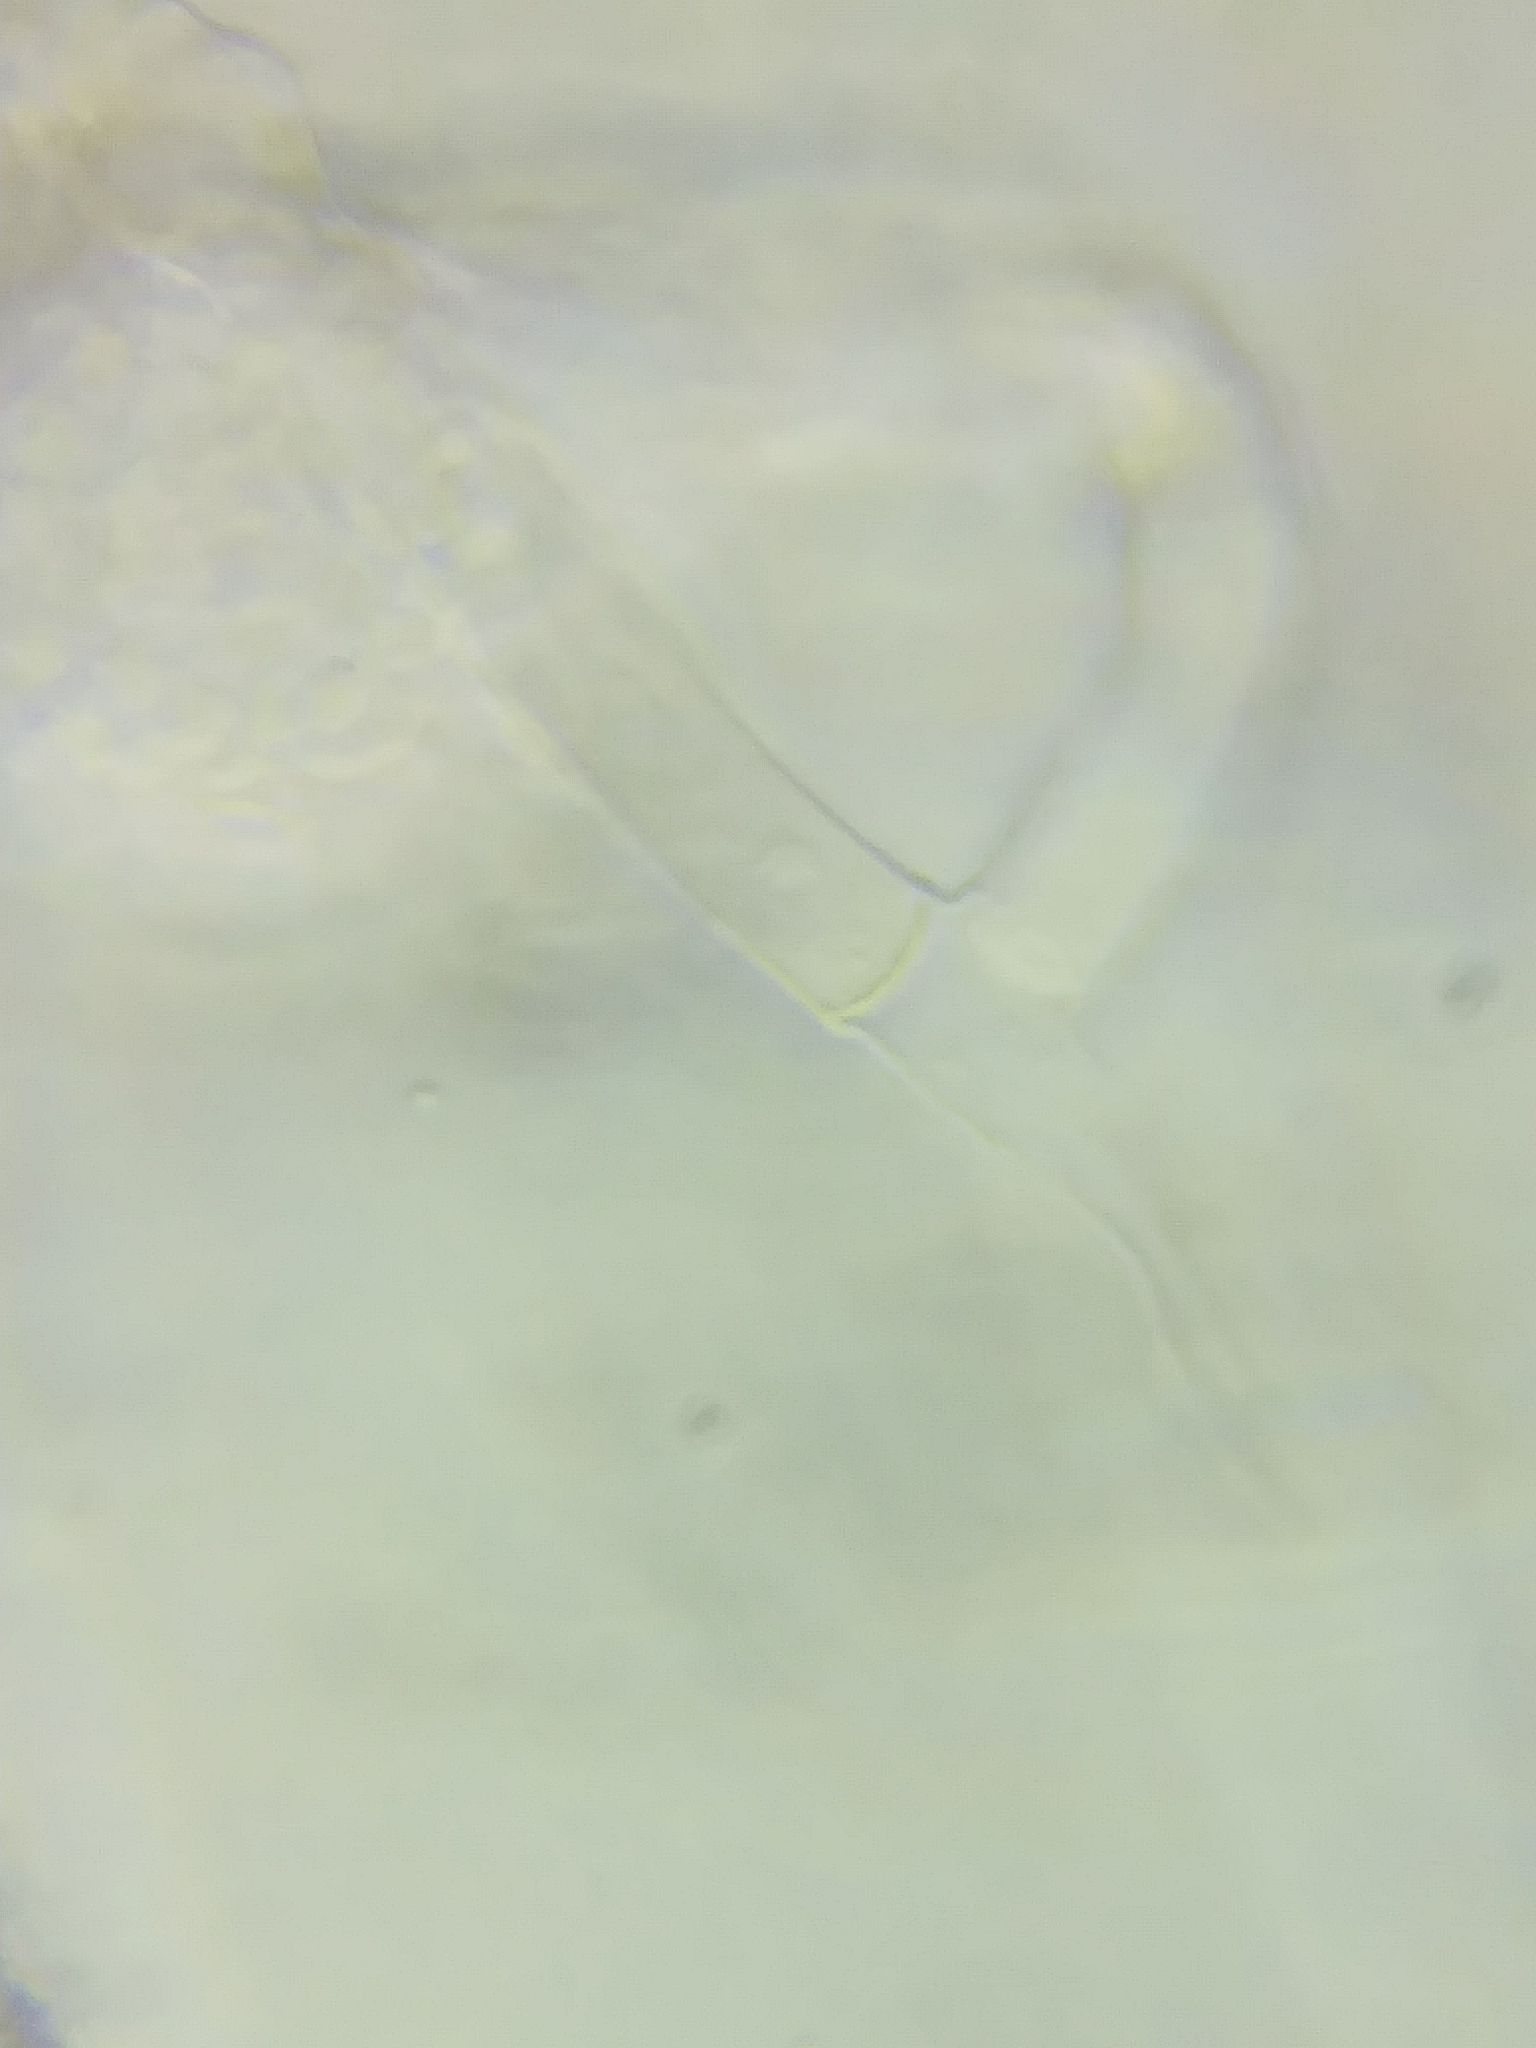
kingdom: Fungi
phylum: Ascomycota
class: Sordariomycetes
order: Hypocreales
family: Hypocreaceae
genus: Mycogone
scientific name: Mycogone rosea
